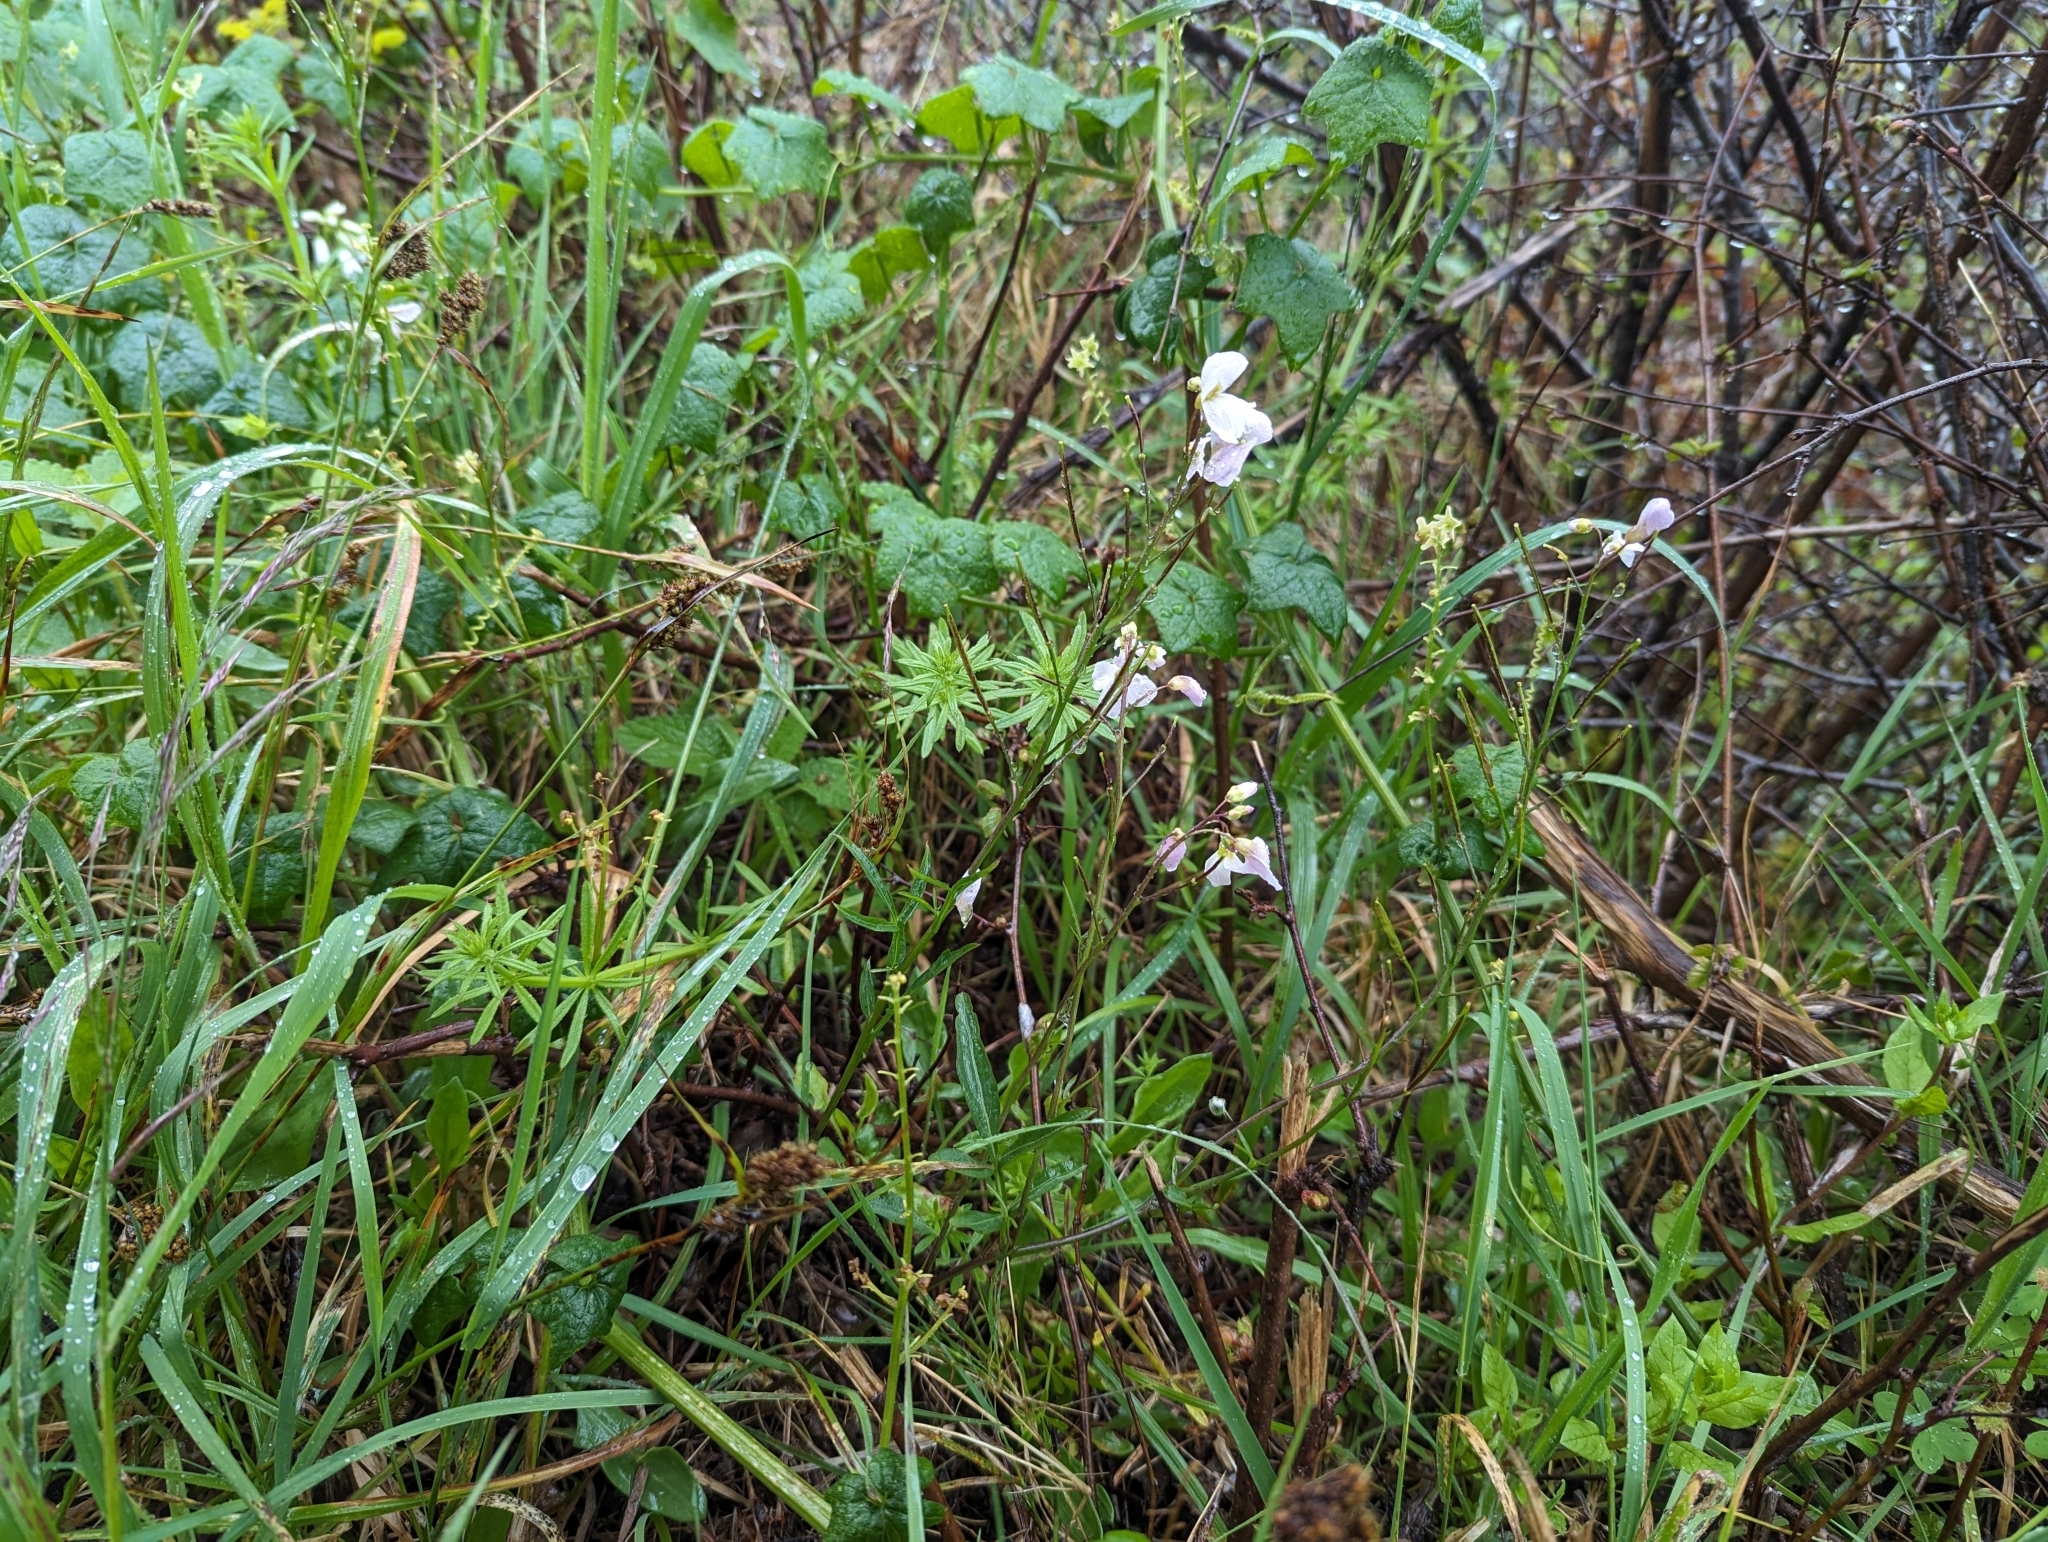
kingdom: Plantae
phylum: Tracheophyta
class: Magnoliopsida
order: Brassicales
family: Brassicaceae
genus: Cardamine
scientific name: Cardamine californica
